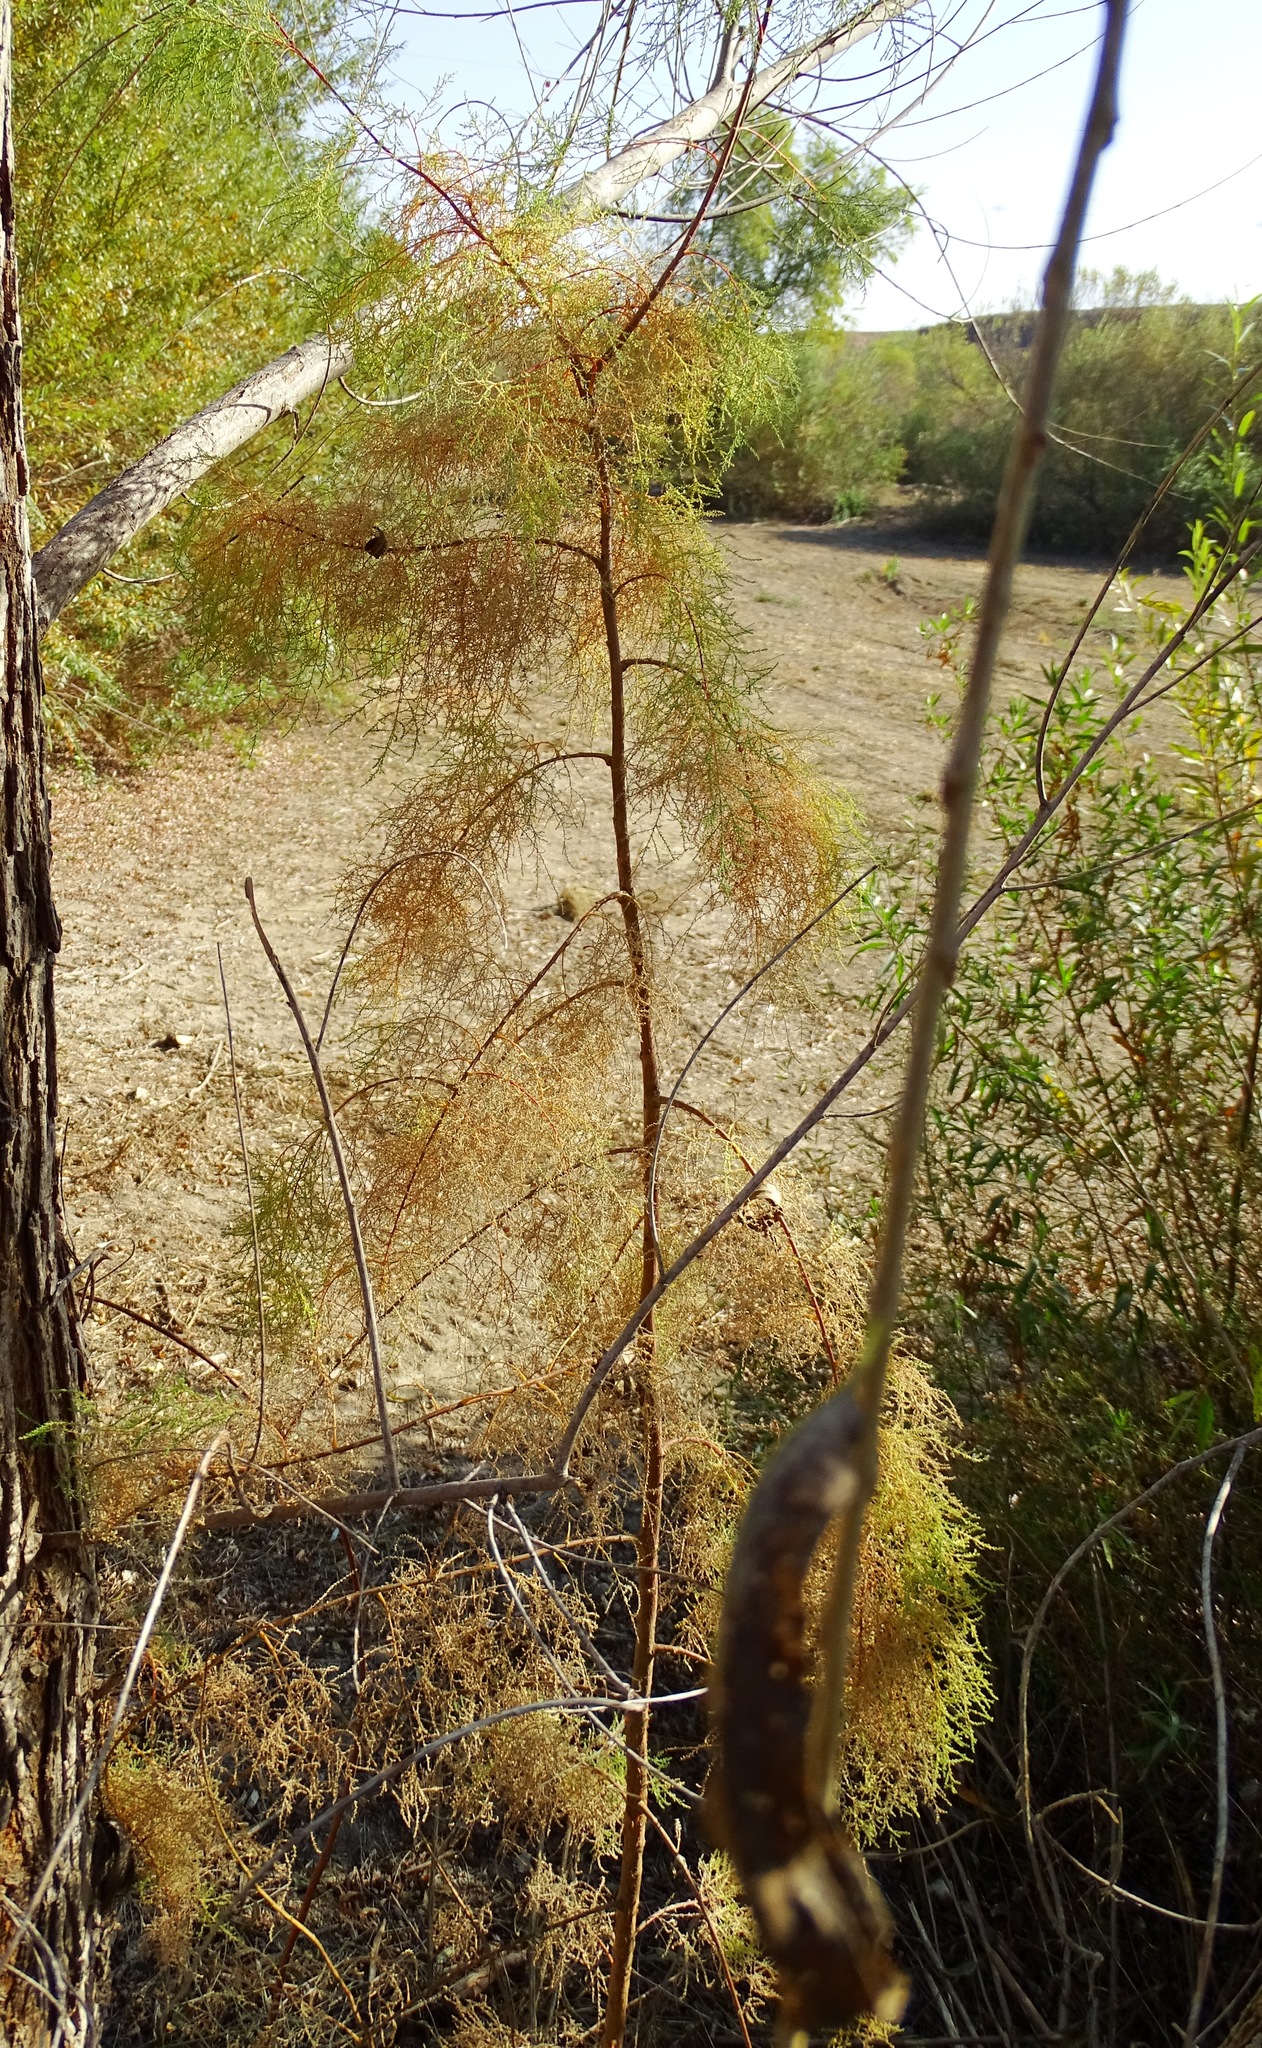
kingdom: Plantae
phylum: Tracheophyta
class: Magnoliopsida
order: Caryophyllales
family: Tamaricaceae
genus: Tamarix
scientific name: Tamarix
